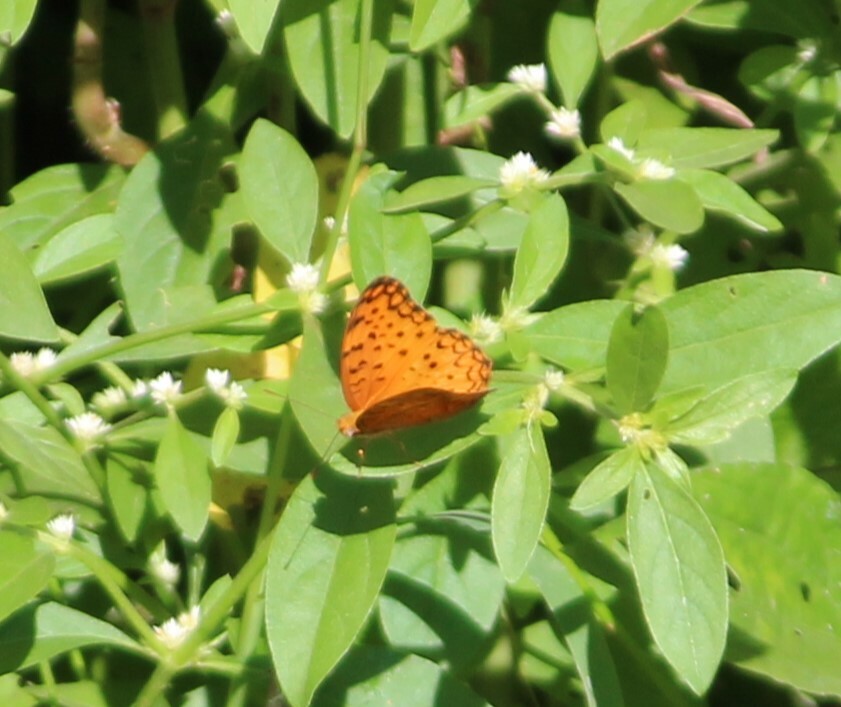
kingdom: Animalia
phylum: Arthropoda
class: Insecta
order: Lepidoptera
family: Nymphalidae
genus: Phalanta
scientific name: Phalanta phalantha
